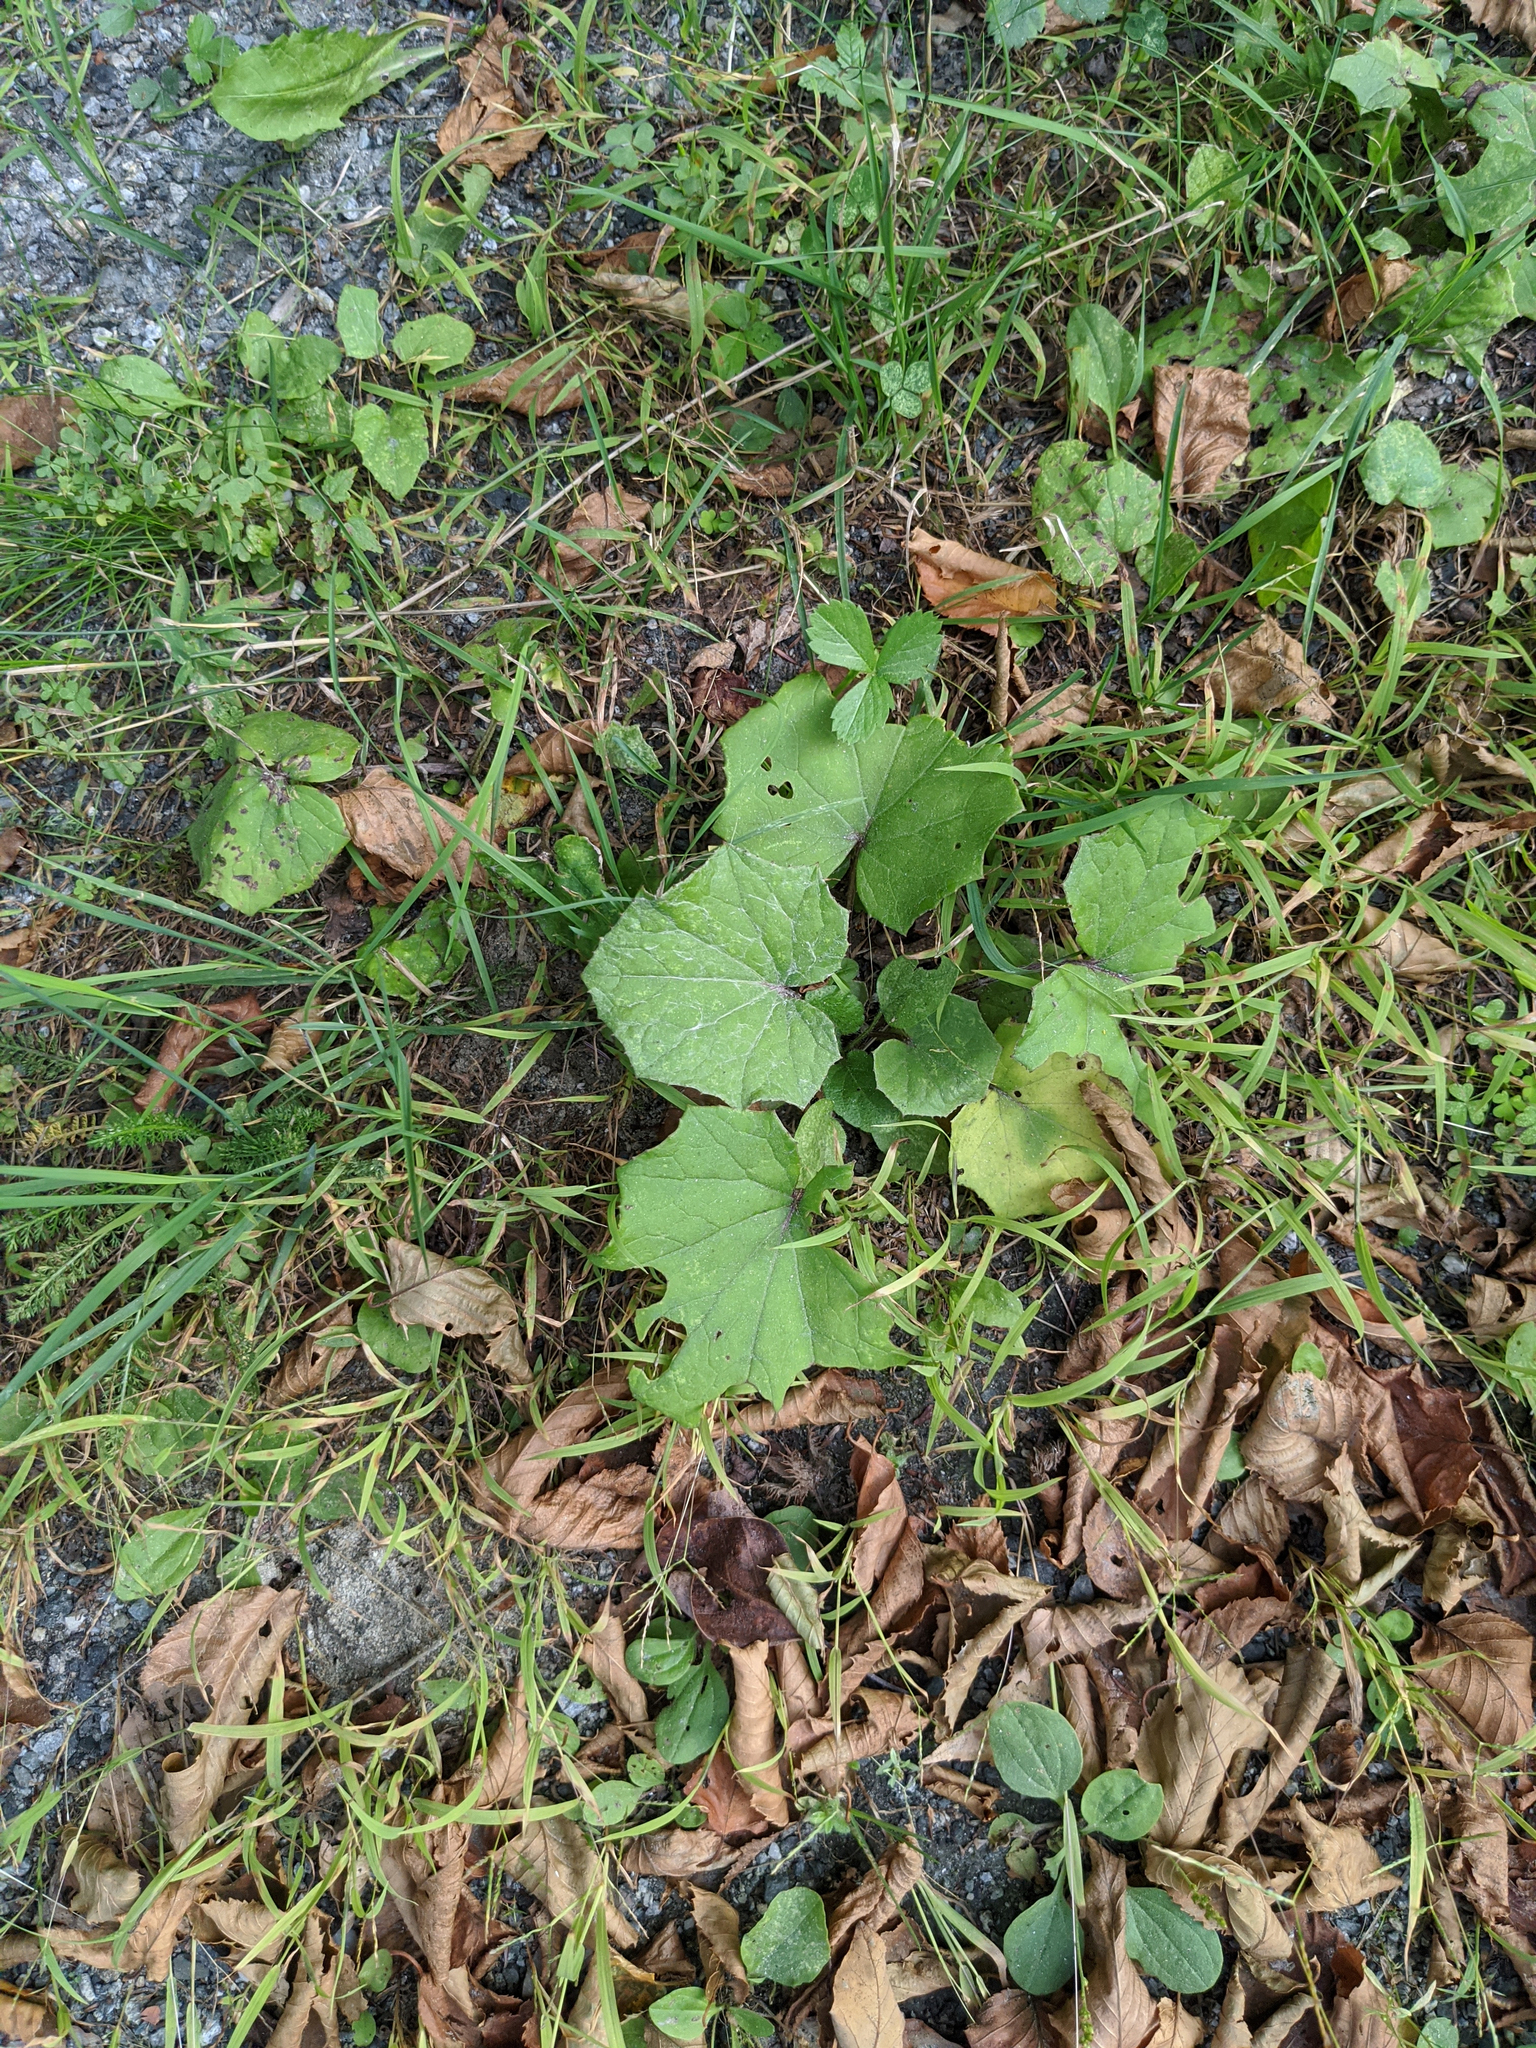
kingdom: Plantae
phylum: Tracheophyta
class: Magnoliopsida
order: Asterales
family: Asteraceae
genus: Tussilago
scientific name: Tussilago farfara
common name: Coltsfoot
